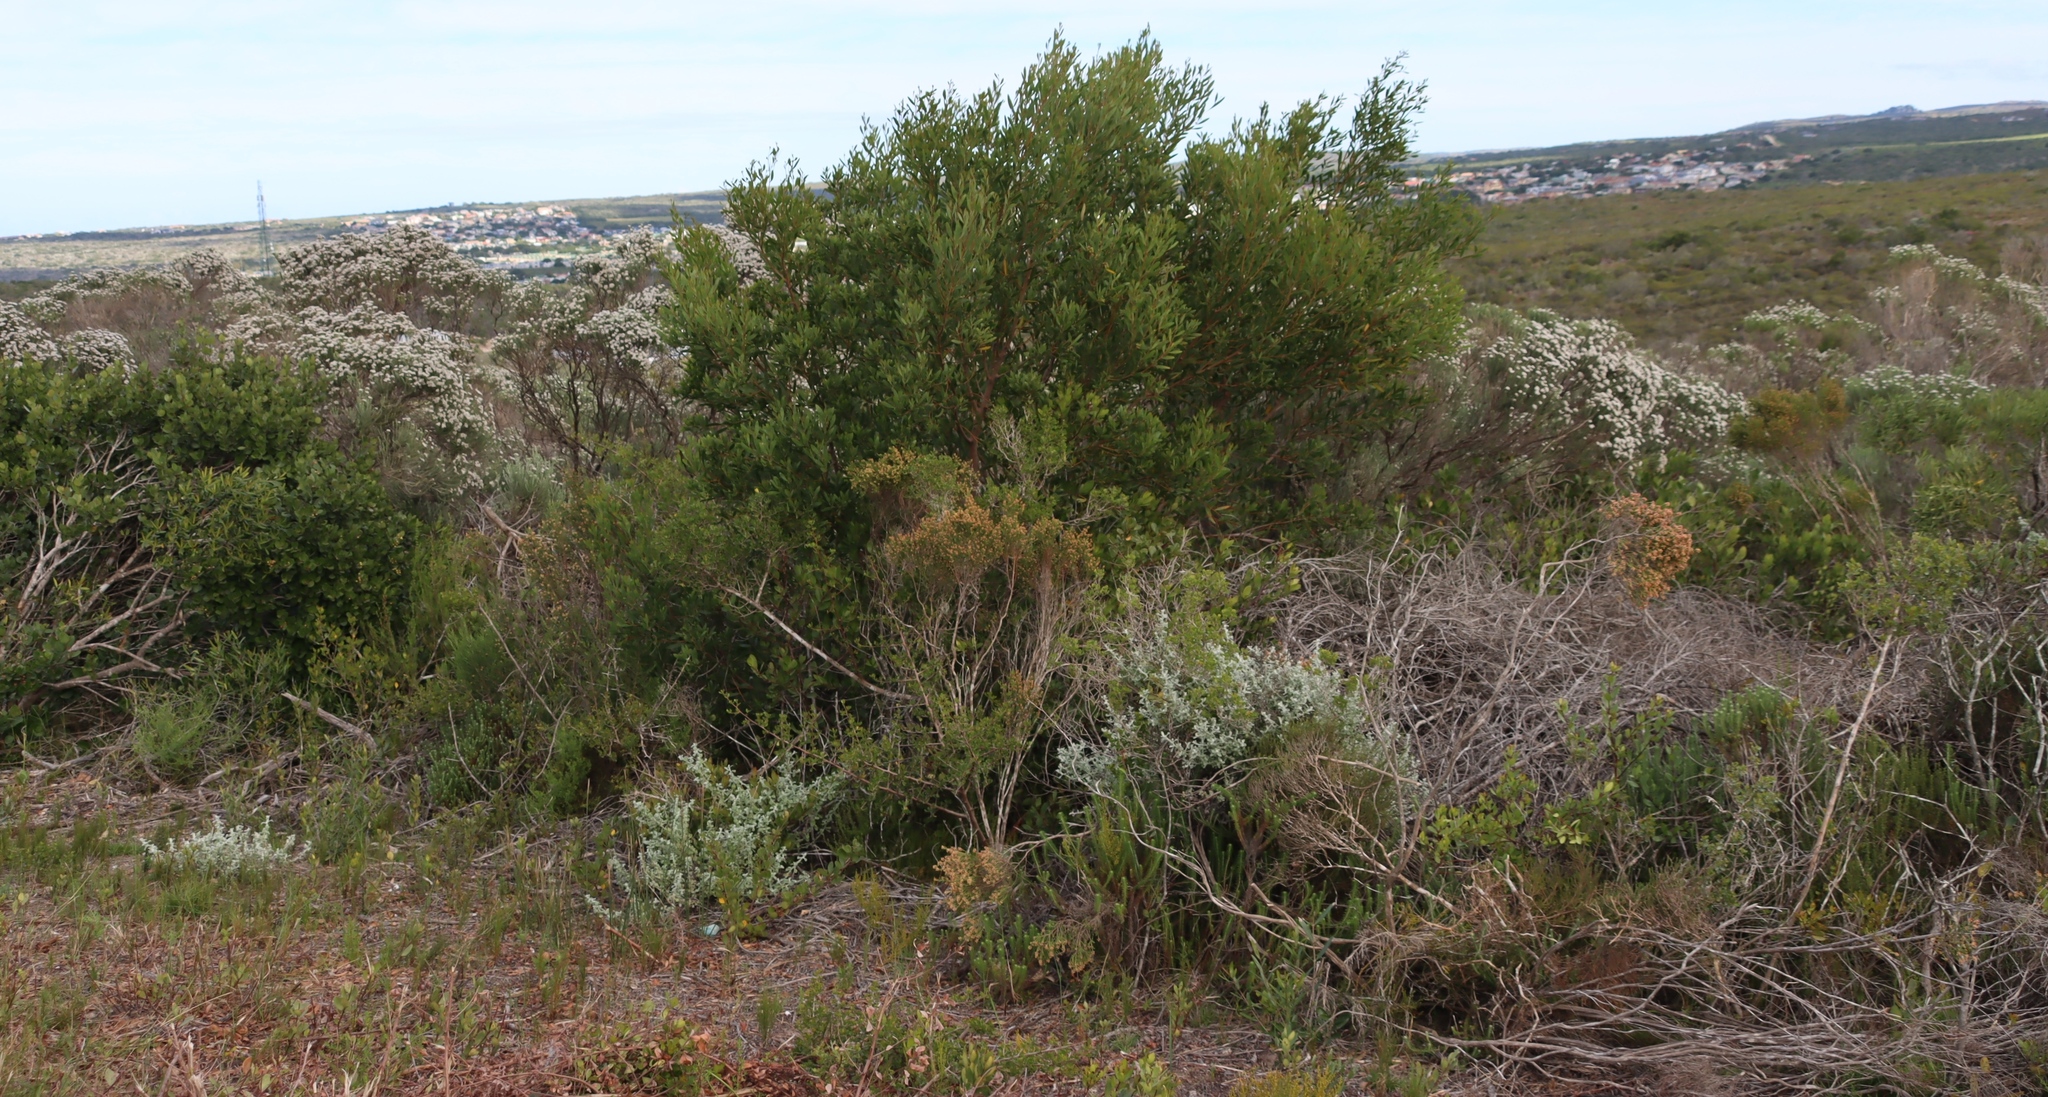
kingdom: Plantae
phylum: Tracheophyta
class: Magnoliopsida
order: Fabales
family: Fabaceae
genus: Acacia
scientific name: Acacia cyclops
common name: Coastal wattle
